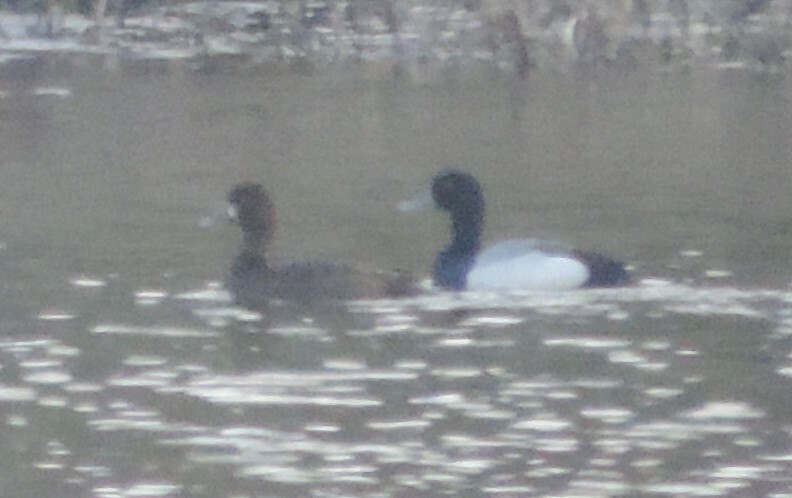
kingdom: Animalia
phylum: Chordata
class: Aves
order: Anseriformes
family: Anatidae
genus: Aythya
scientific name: Aythya affinis
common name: Lesser scaup
